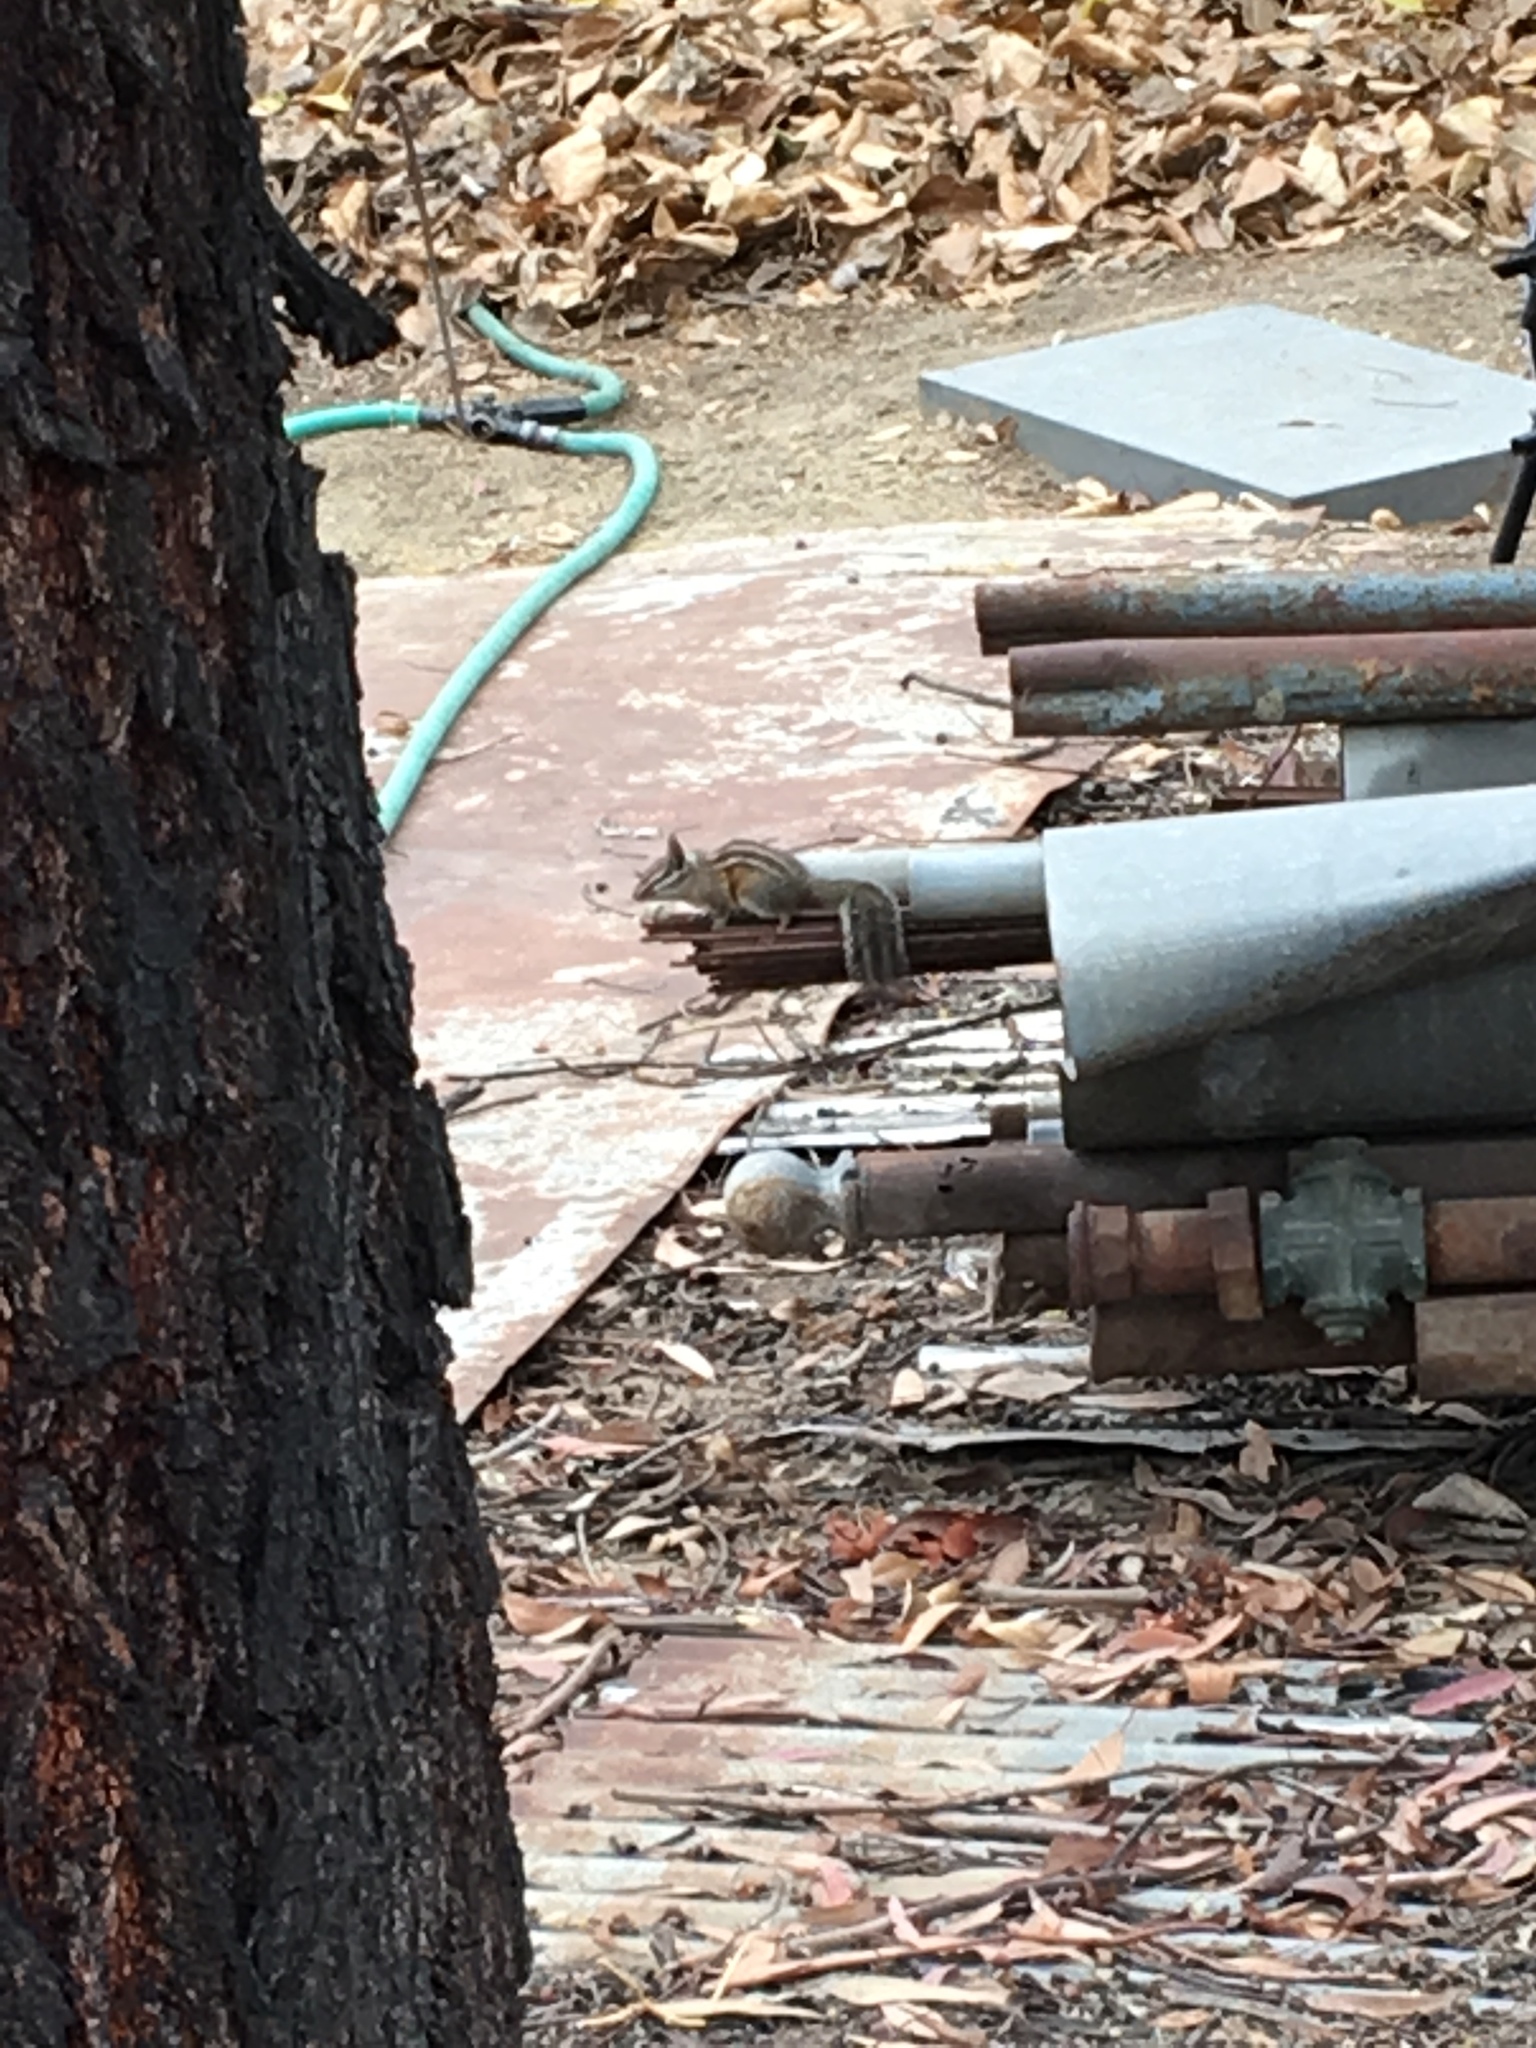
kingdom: Animalia
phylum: Chordata
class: Mammalia
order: Rodentia
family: Sciuridae
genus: Tamias
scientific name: Tamias merriami
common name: Merriam's chipmunk
